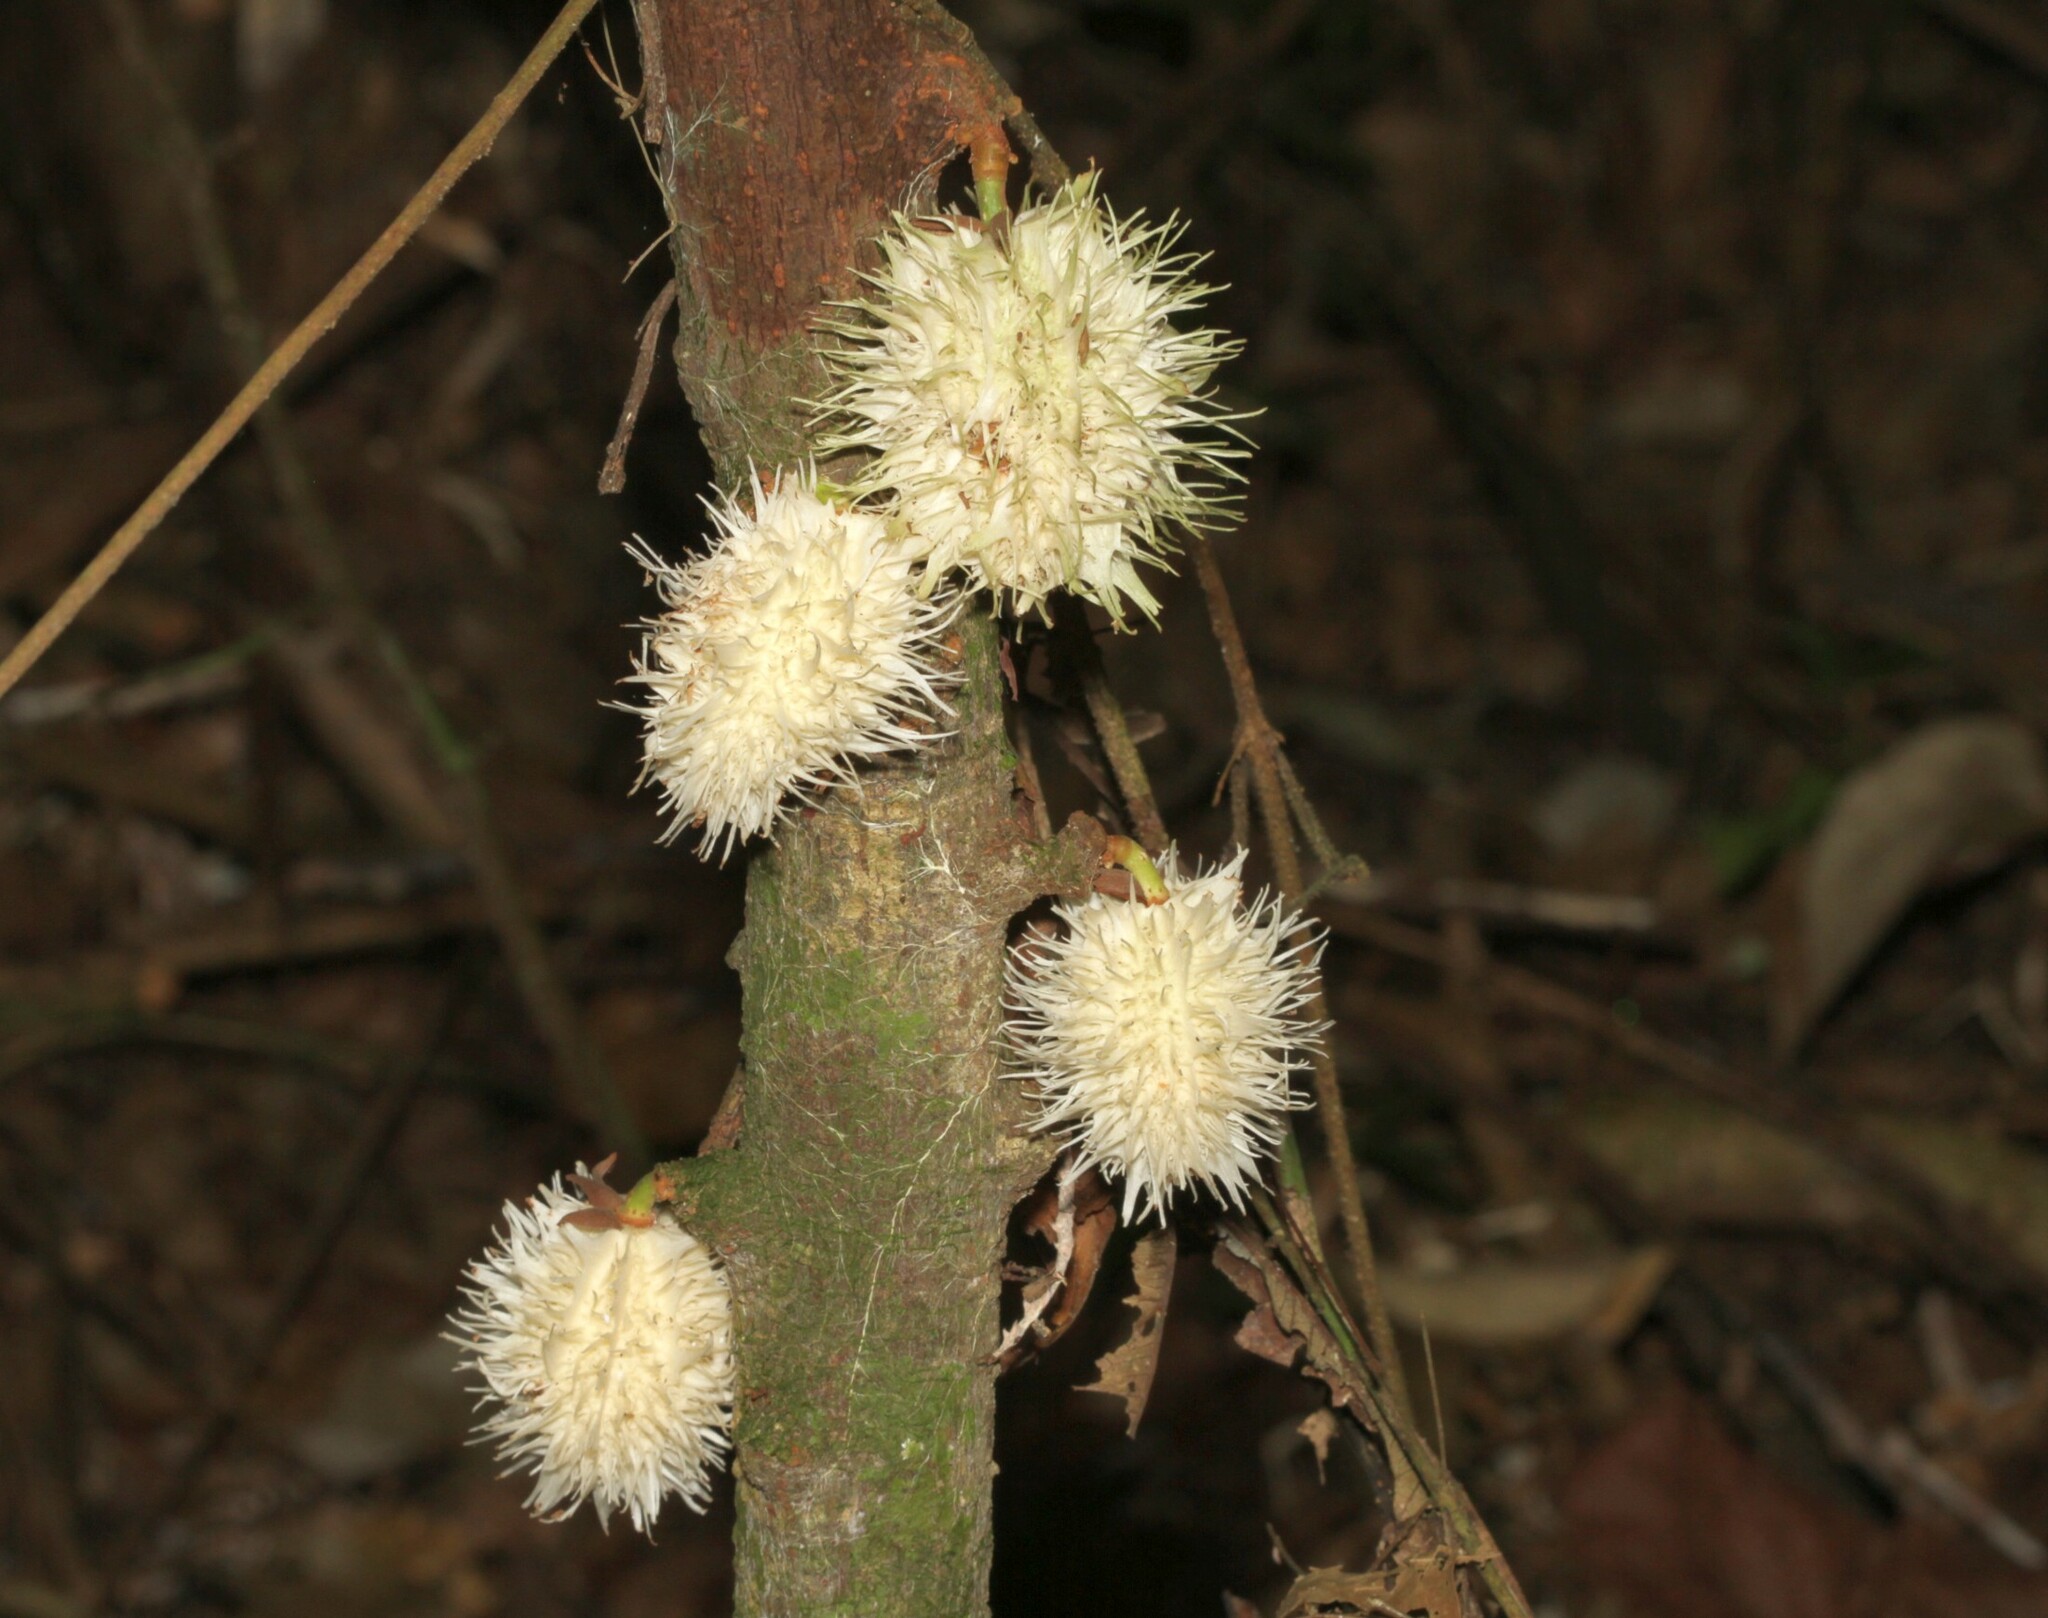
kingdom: Plantae
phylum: Tracheophyta
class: Magnoliopsida
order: Malpighiales
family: Achariaceae
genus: Carpotroche
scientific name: Carpotroche longifolia
